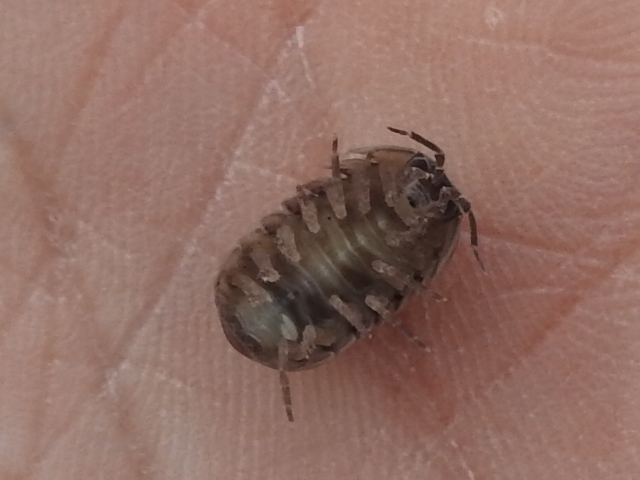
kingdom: Animalia
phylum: Arthropoda
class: Malacostraca
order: Isopoda
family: Armadillidiidae
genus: Armadillidium
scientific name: Armadillidium vulgare
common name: Common pill woodlouse
